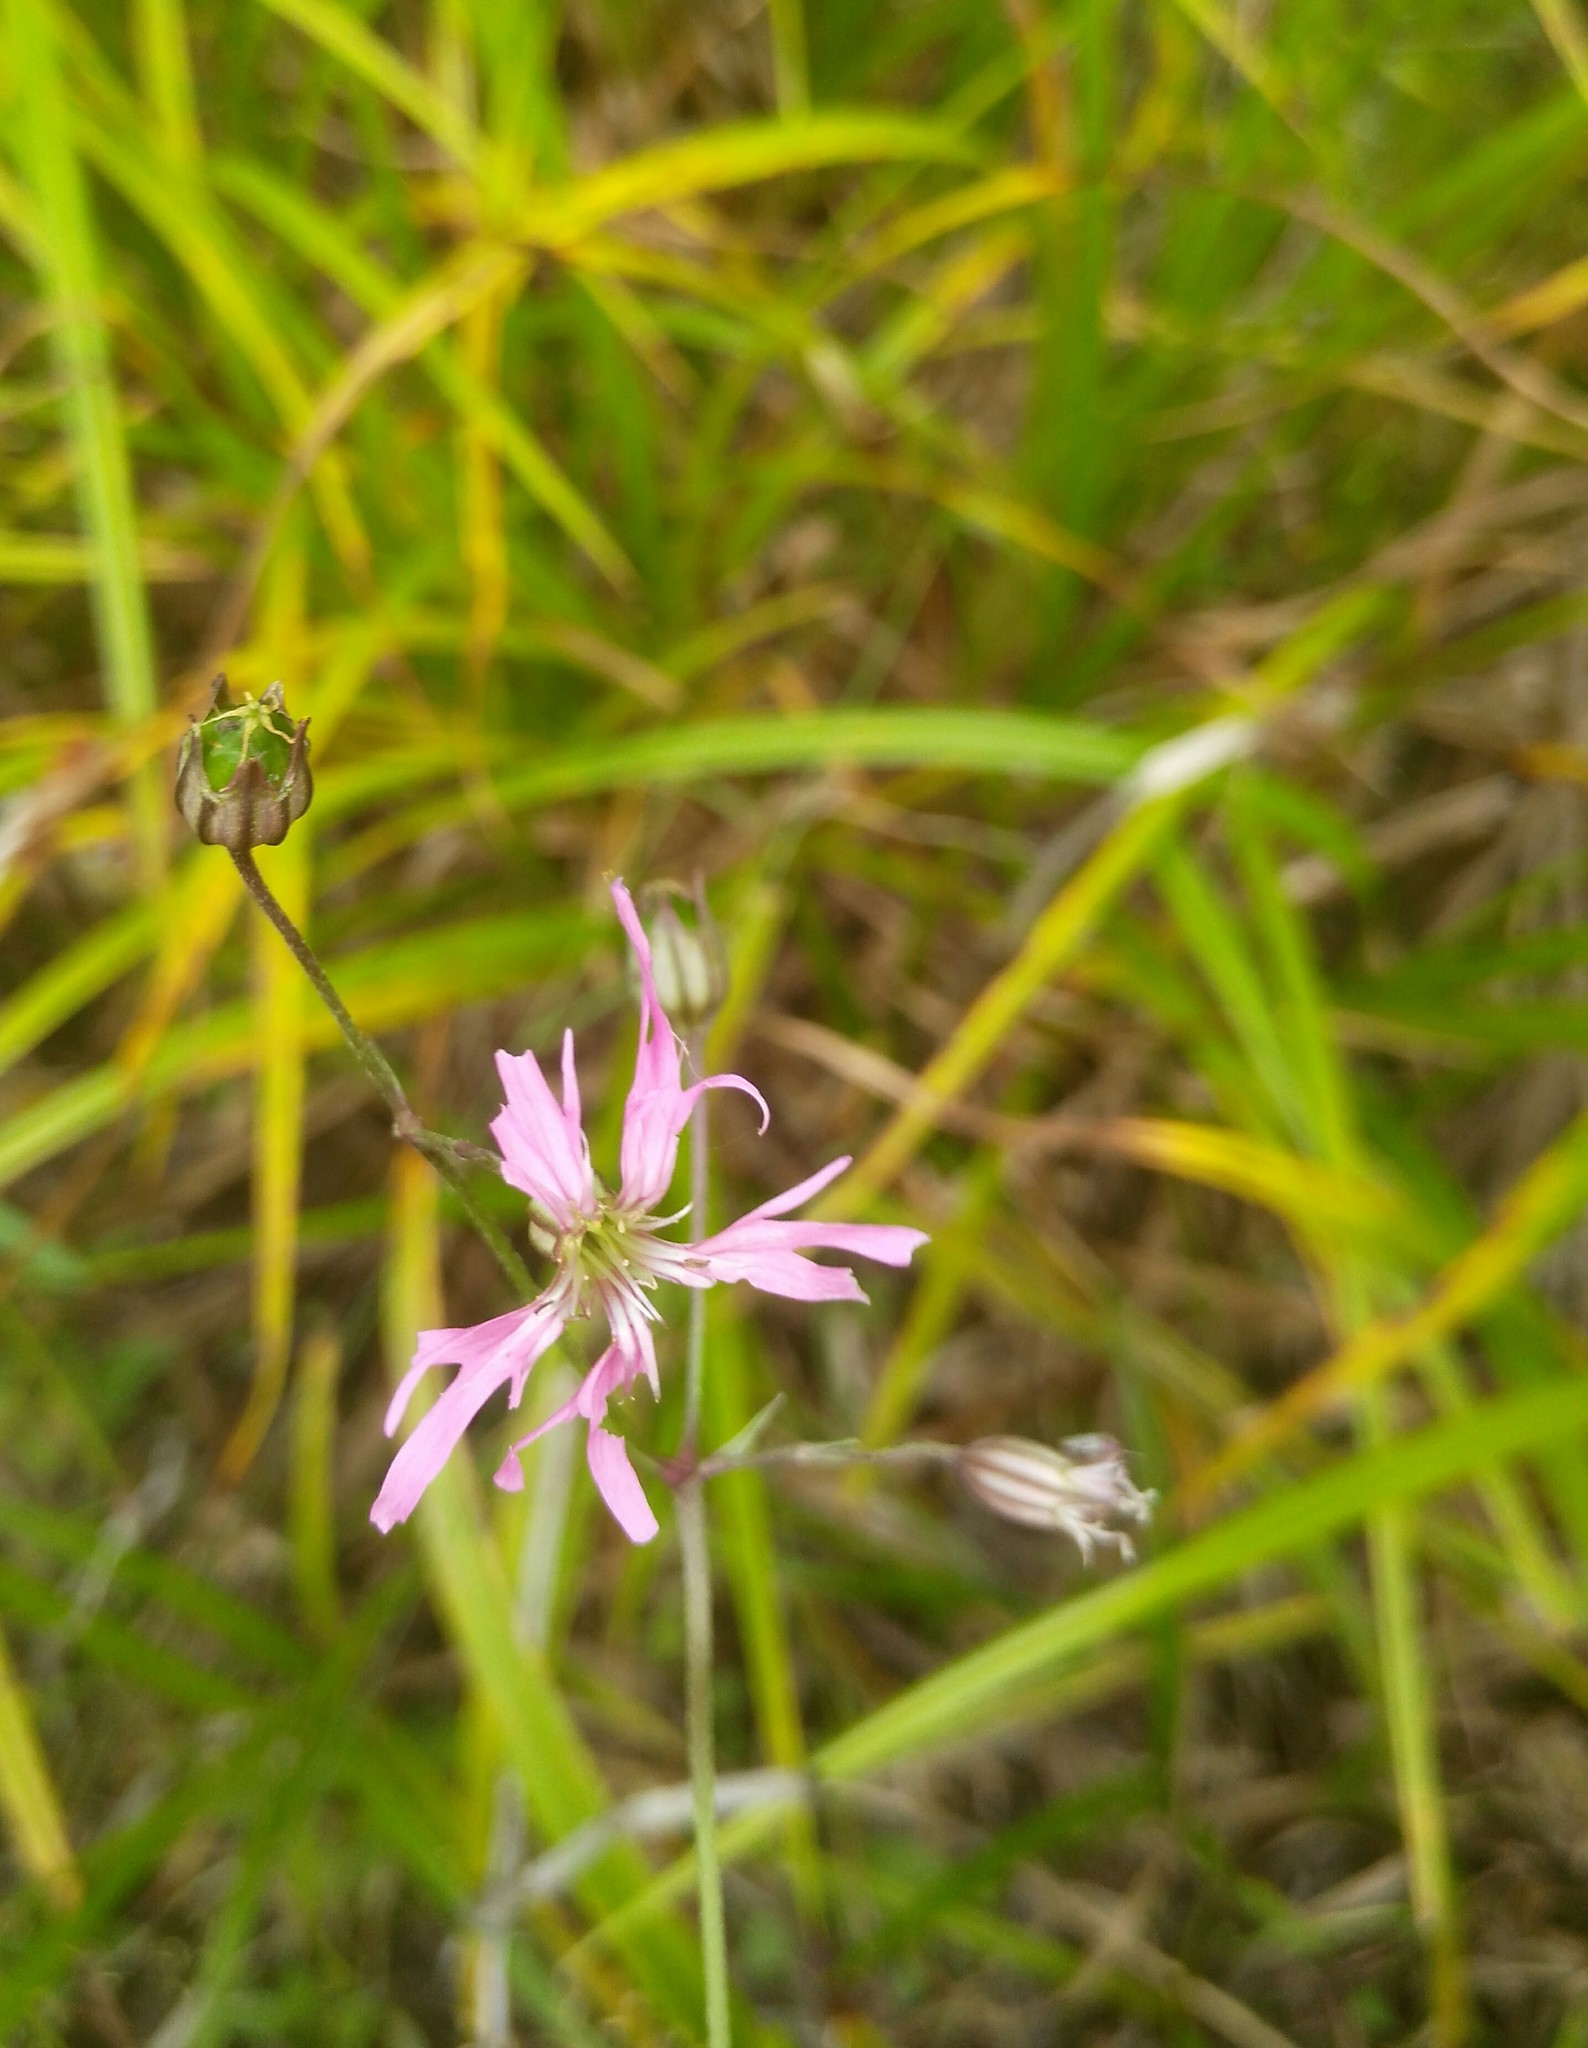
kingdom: Plantae
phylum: Tracheophyta
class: Magnoliopsida
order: Caryophyllales
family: Caryophyllaceae
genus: Silene
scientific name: Silene flos-cuculi
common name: Ragged-robin
